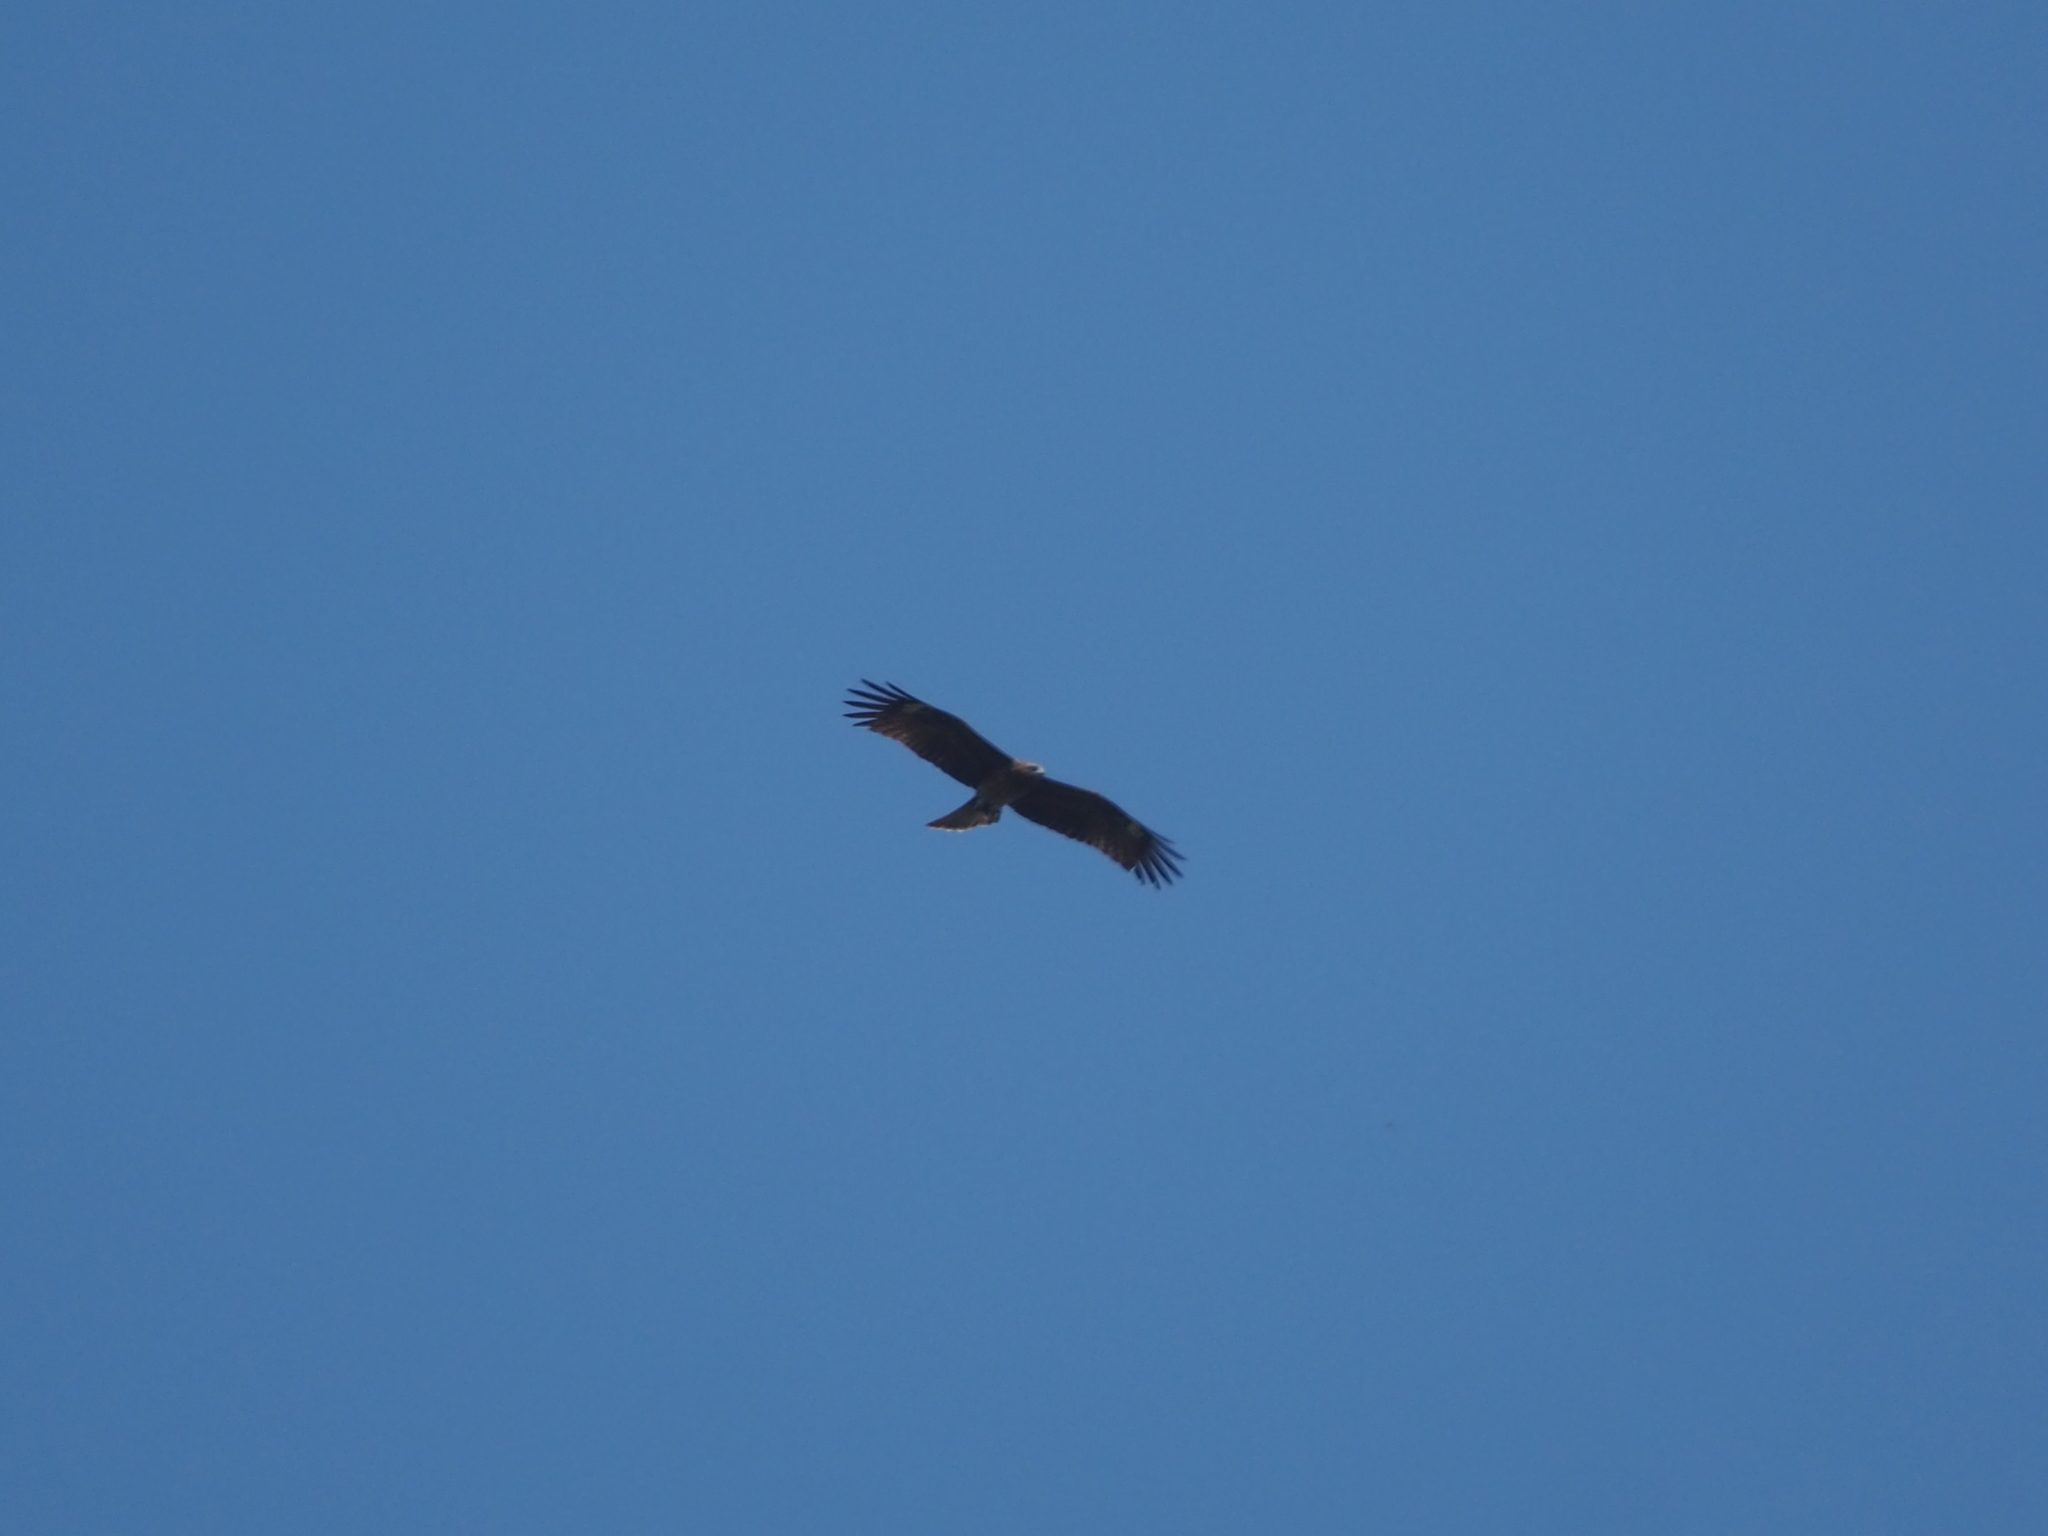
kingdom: Animalia
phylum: Chordata
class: Aves
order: Accipitriformes
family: Accipitridae
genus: Milvus
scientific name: Milvus migrans
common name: Black kite
